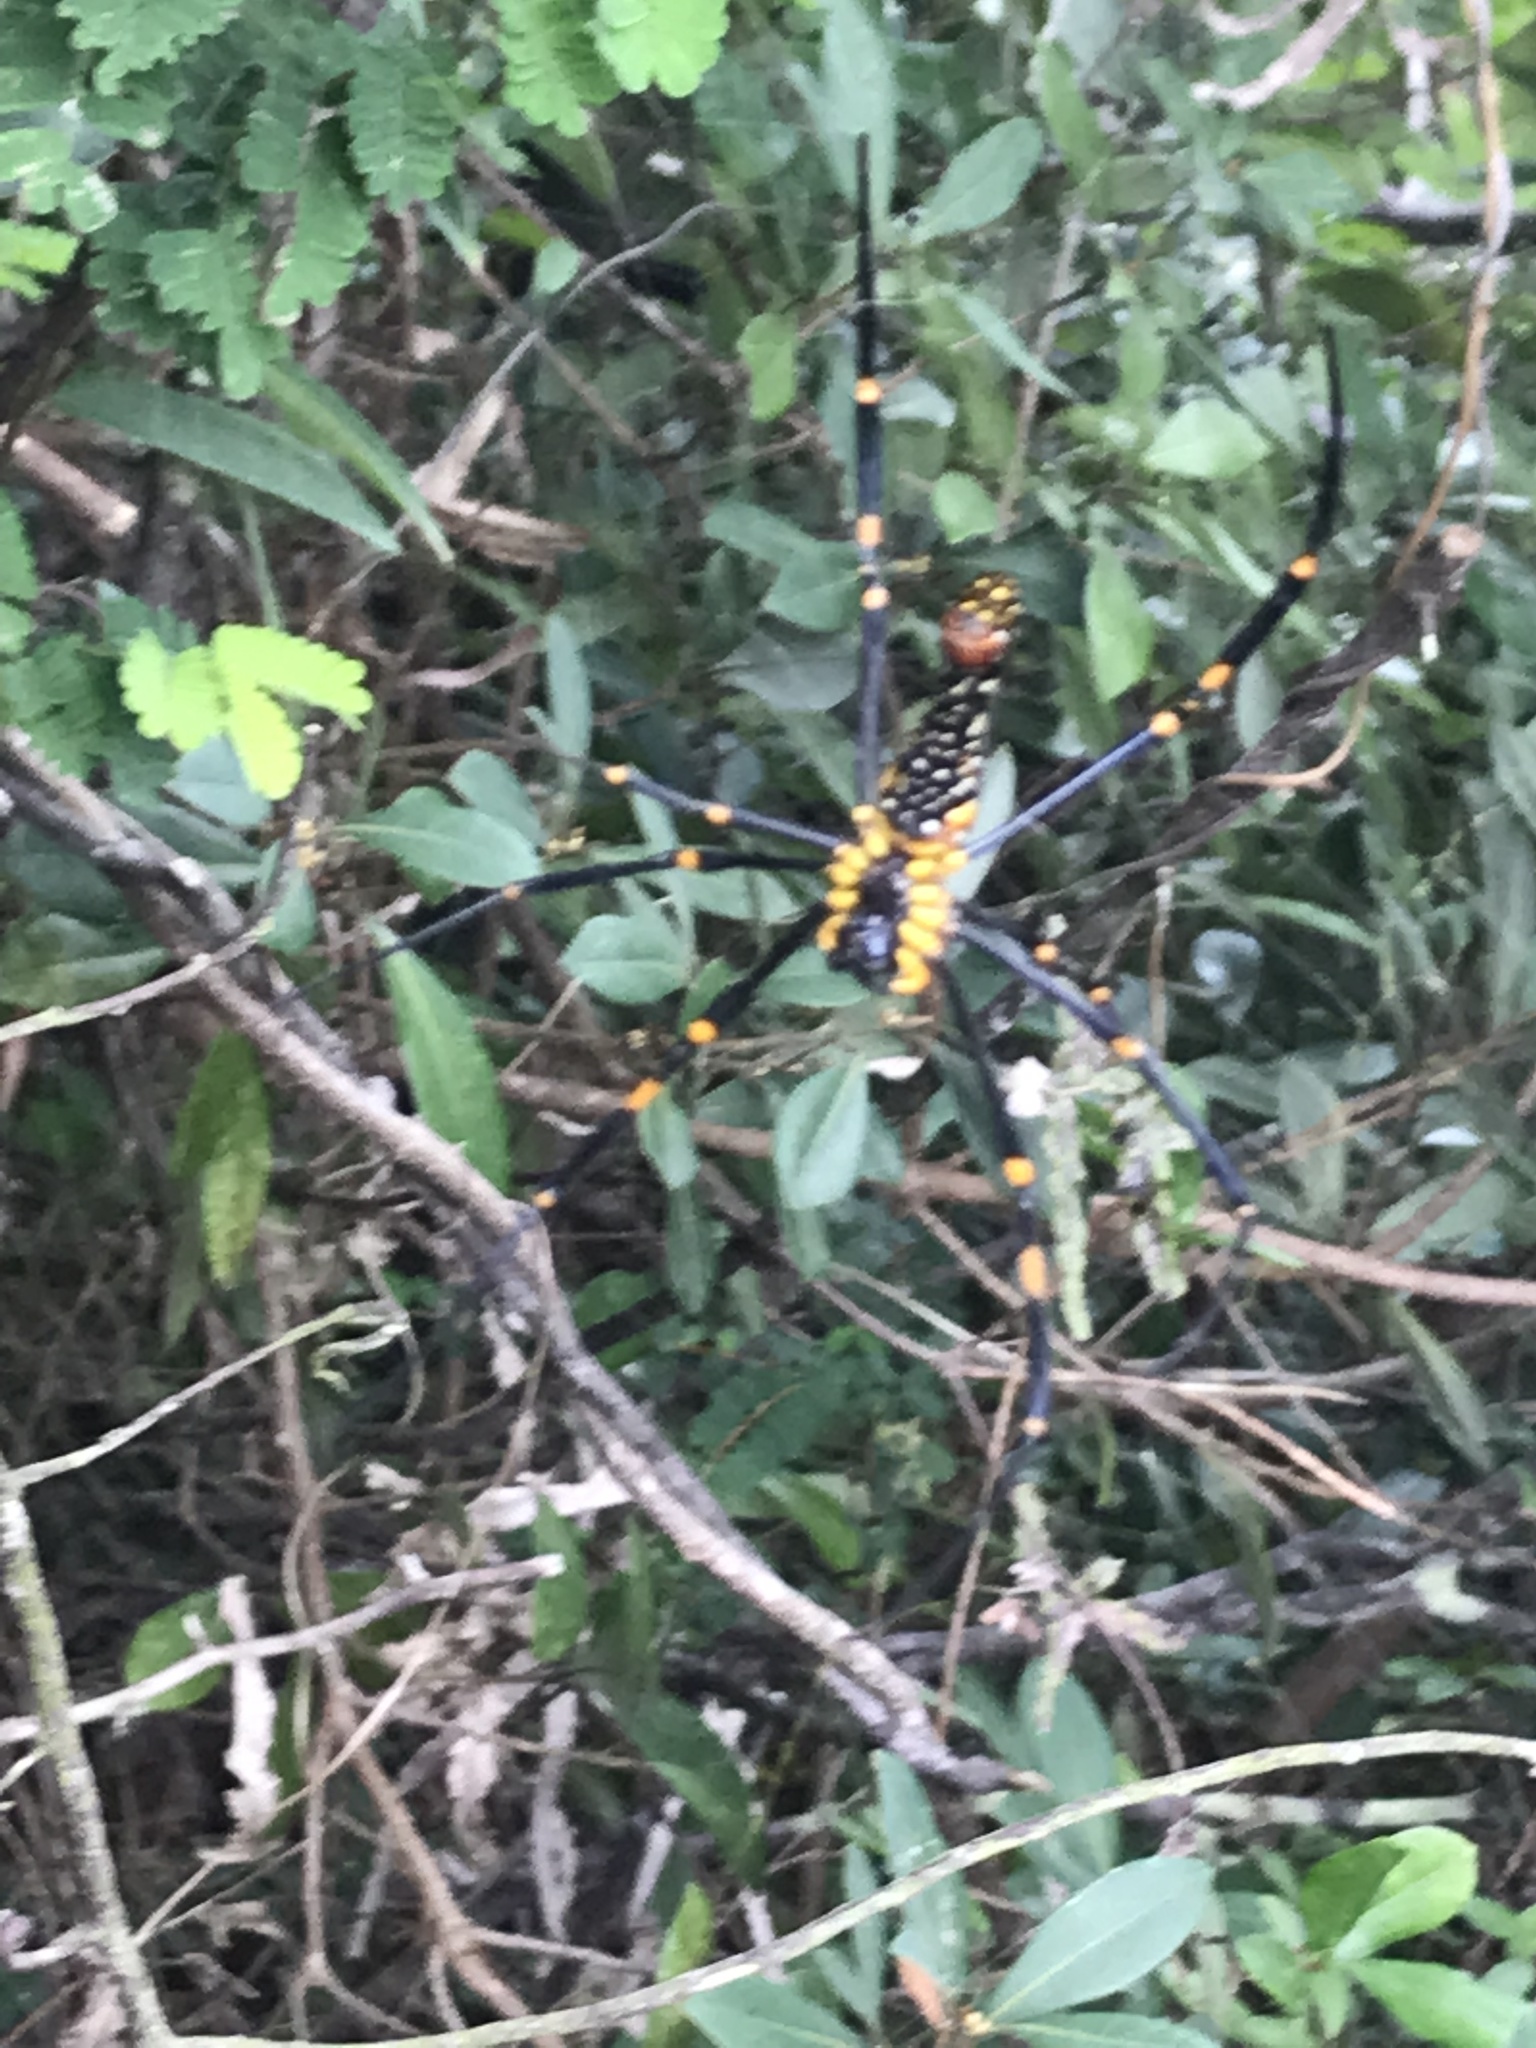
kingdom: Animalia
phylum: Arthropoda
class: Arachnida
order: Araneae
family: Araneidae
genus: Nephila
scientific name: Nephila pilipes
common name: Giant golden orb weaver
